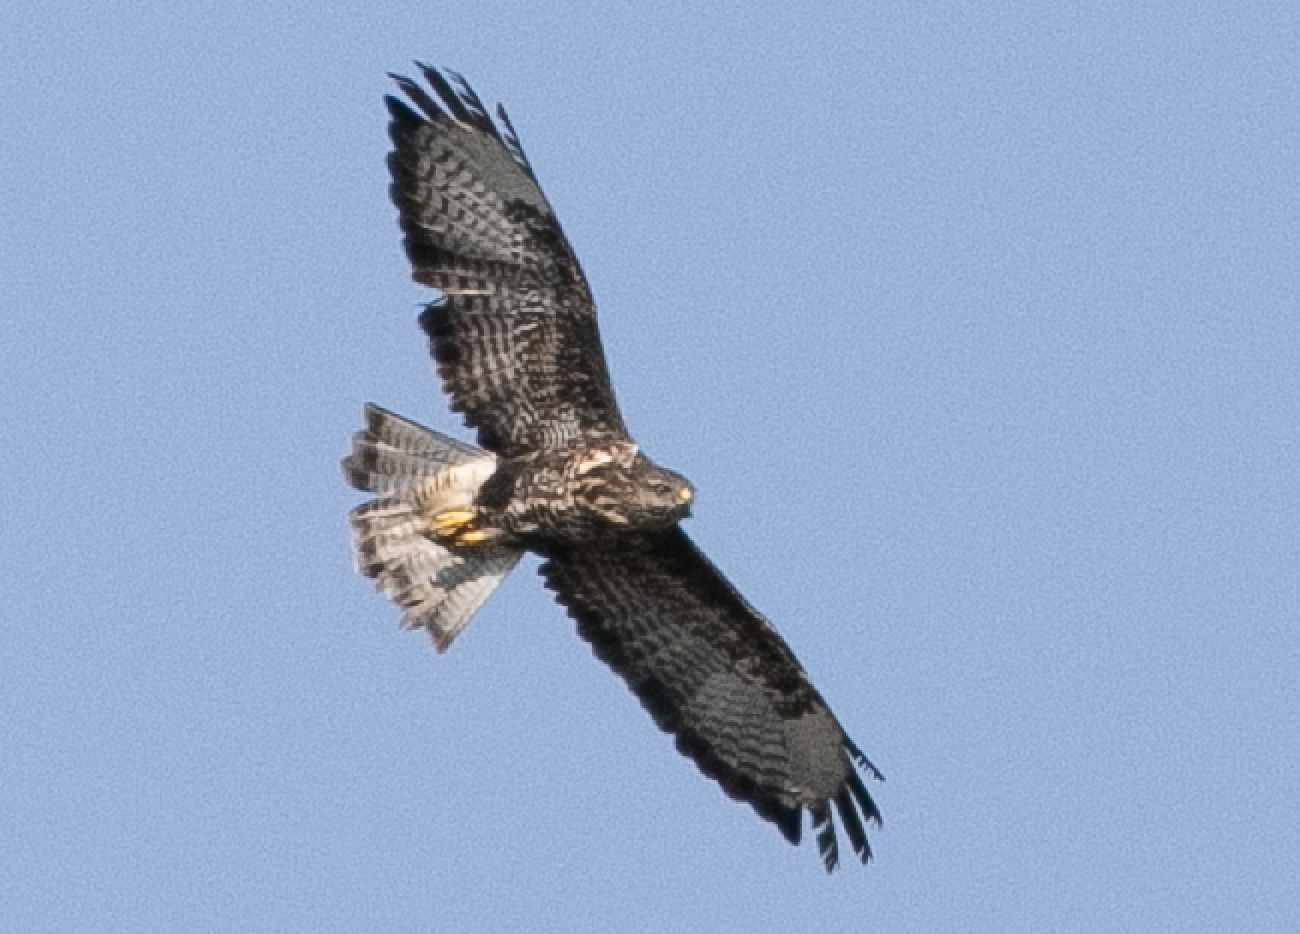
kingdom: Animalia
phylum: Chordata
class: Aves
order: Accipitriformes
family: Accipitridae
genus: Buteo
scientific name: Buteo buteo
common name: Common buzzard
